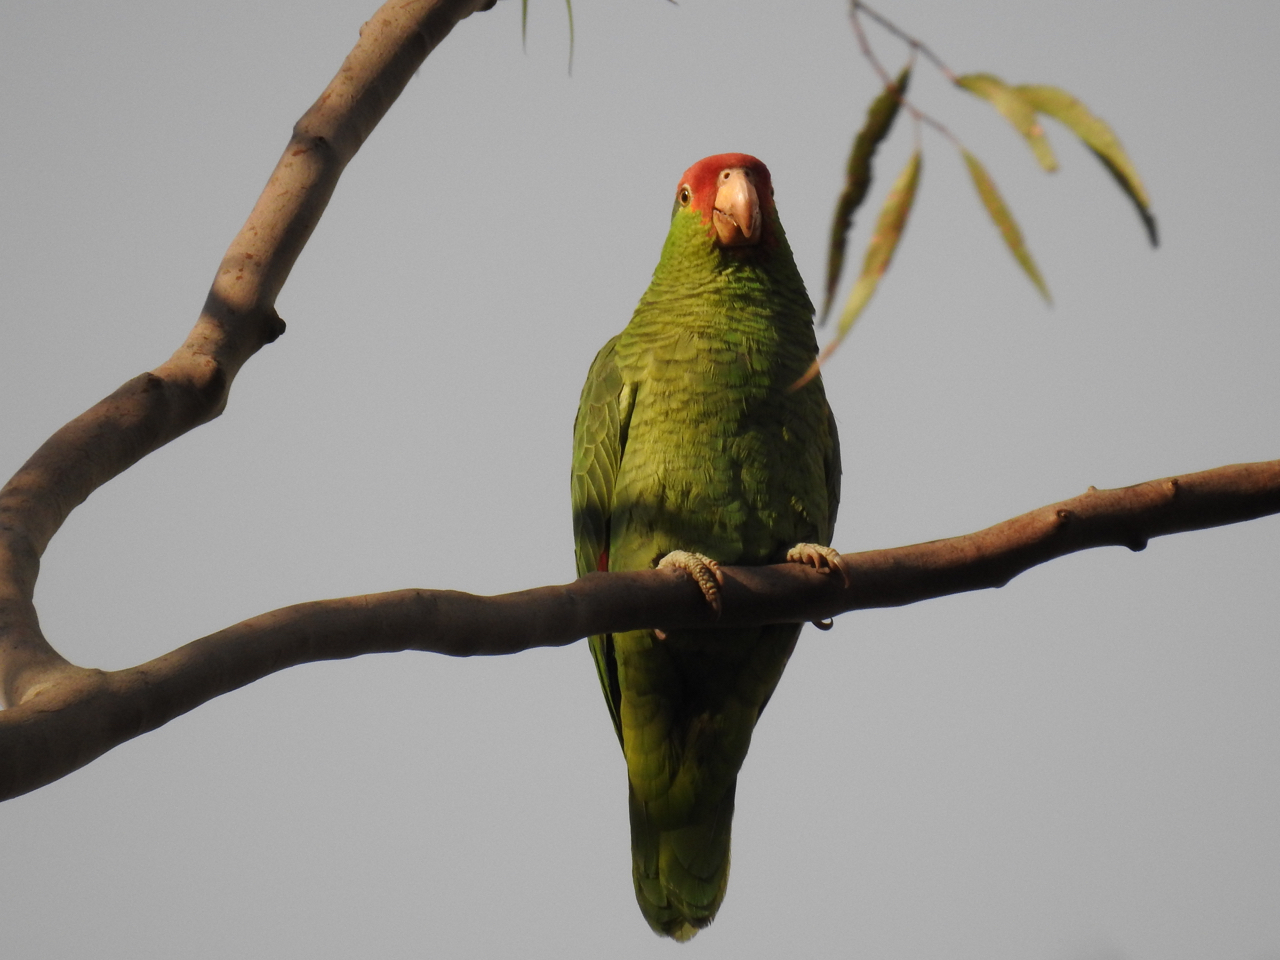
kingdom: Animalia
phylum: Chordata
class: Aves
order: Psittaciformes
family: Psittacidae
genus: Amazona
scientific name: Amazona viridigenalis
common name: Red-crowned amazon
